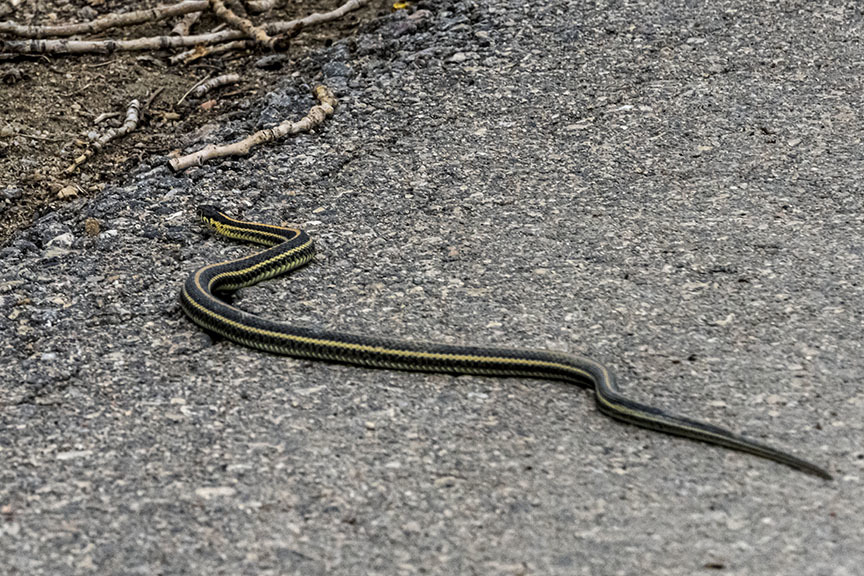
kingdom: Animalia
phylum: Chordata
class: Squamata
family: Colubridae
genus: Thamnophis
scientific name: Thamnophis radix
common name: Plains garter snake
